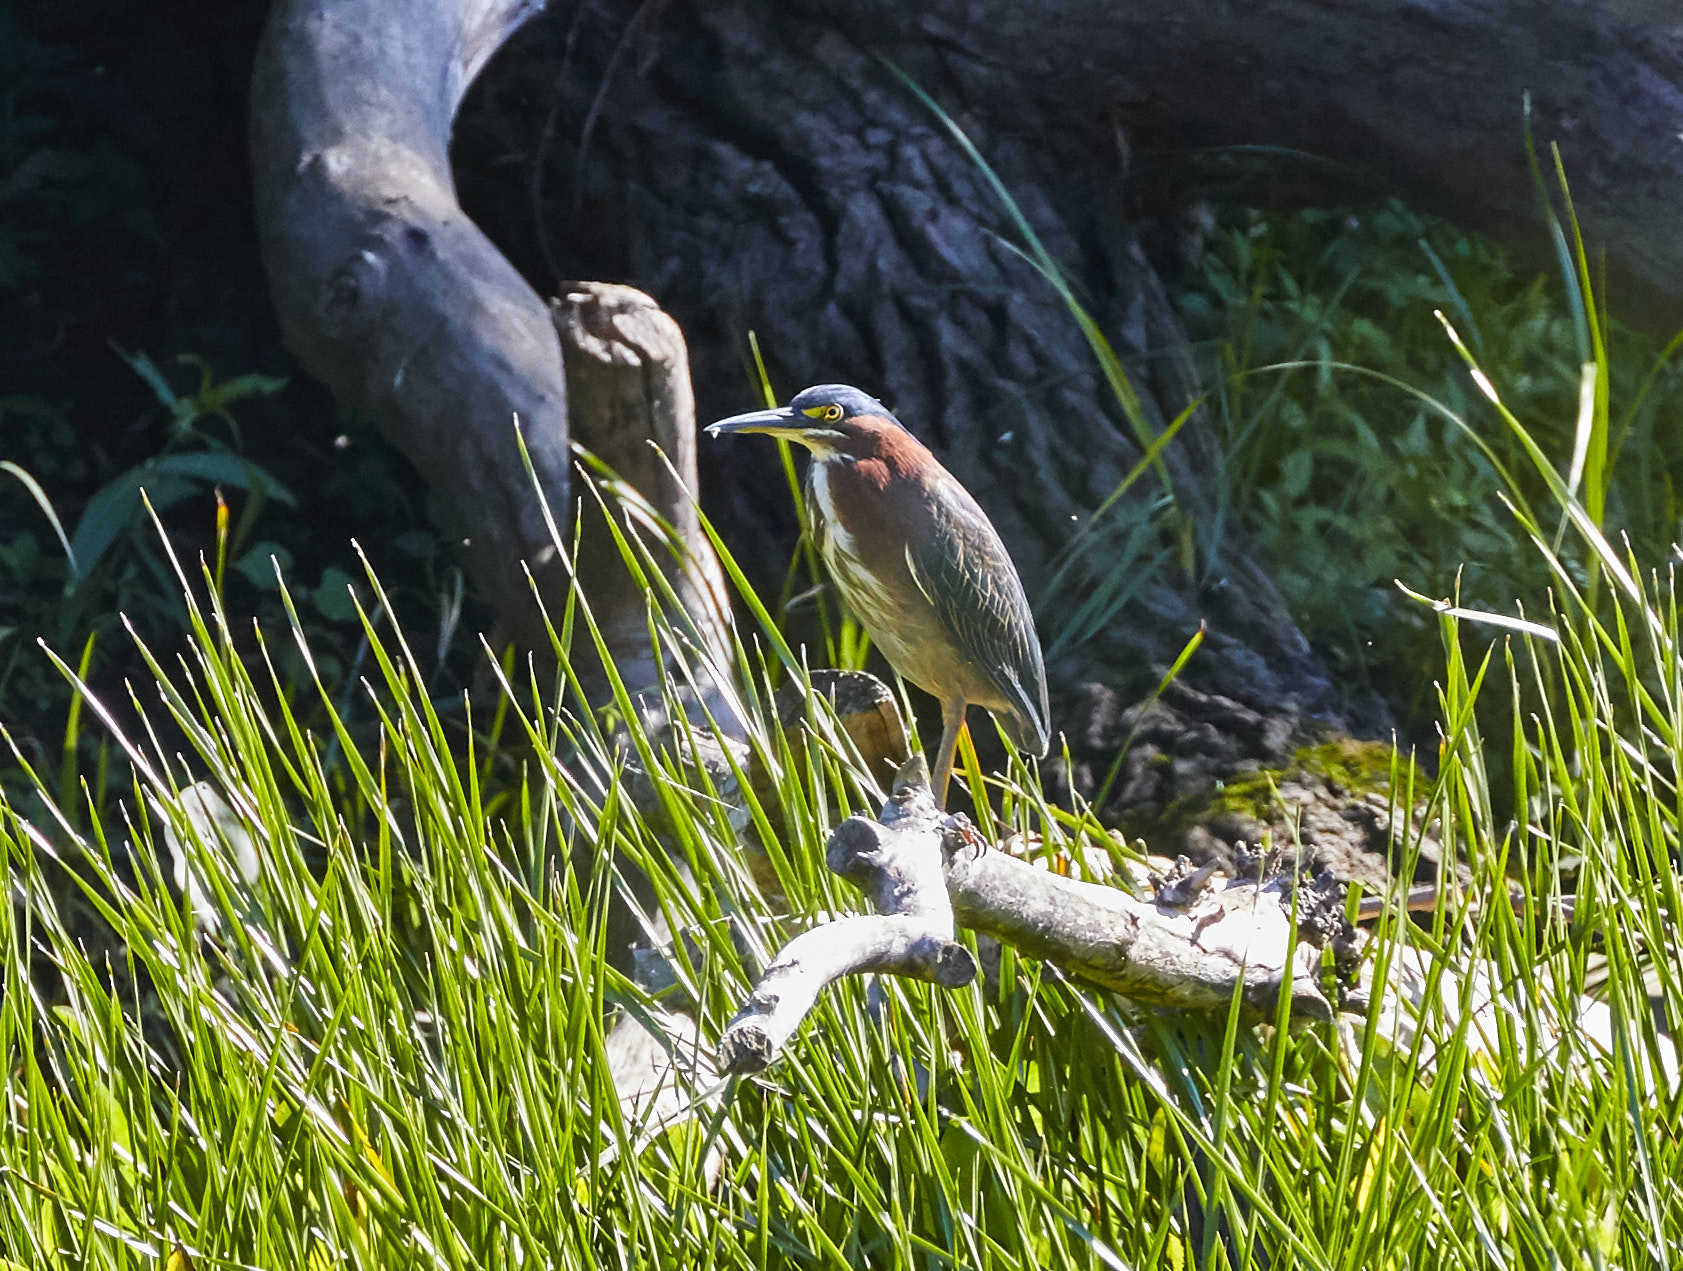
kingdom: Animalia
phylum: Chordata
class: Aves
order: Pelecaniformes
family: Ardeidae
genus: Butorides
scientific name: Butorides virescens
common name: Green heron
